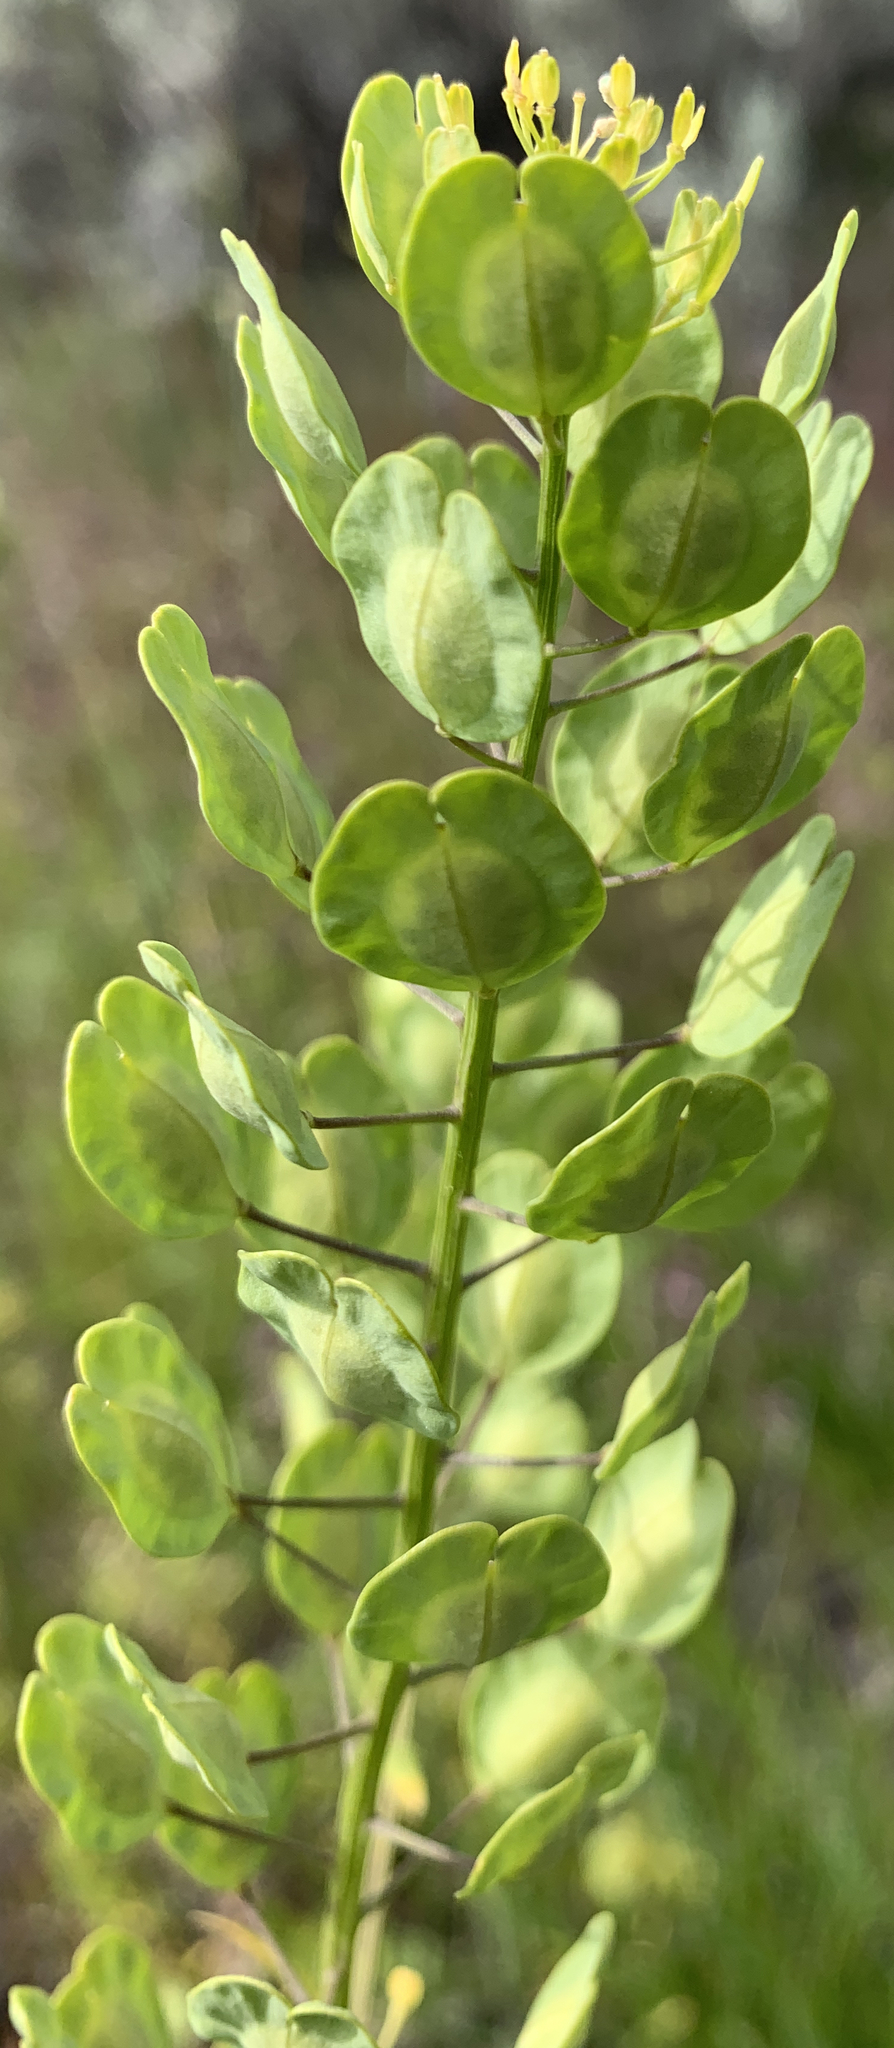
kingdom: Plantae
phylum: Tracheophyta
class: Magnoliopsida
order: Brassicales
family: Brassicaceae
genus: Thlaspi
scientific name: Thlaspi arvense
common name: Field pennycress
